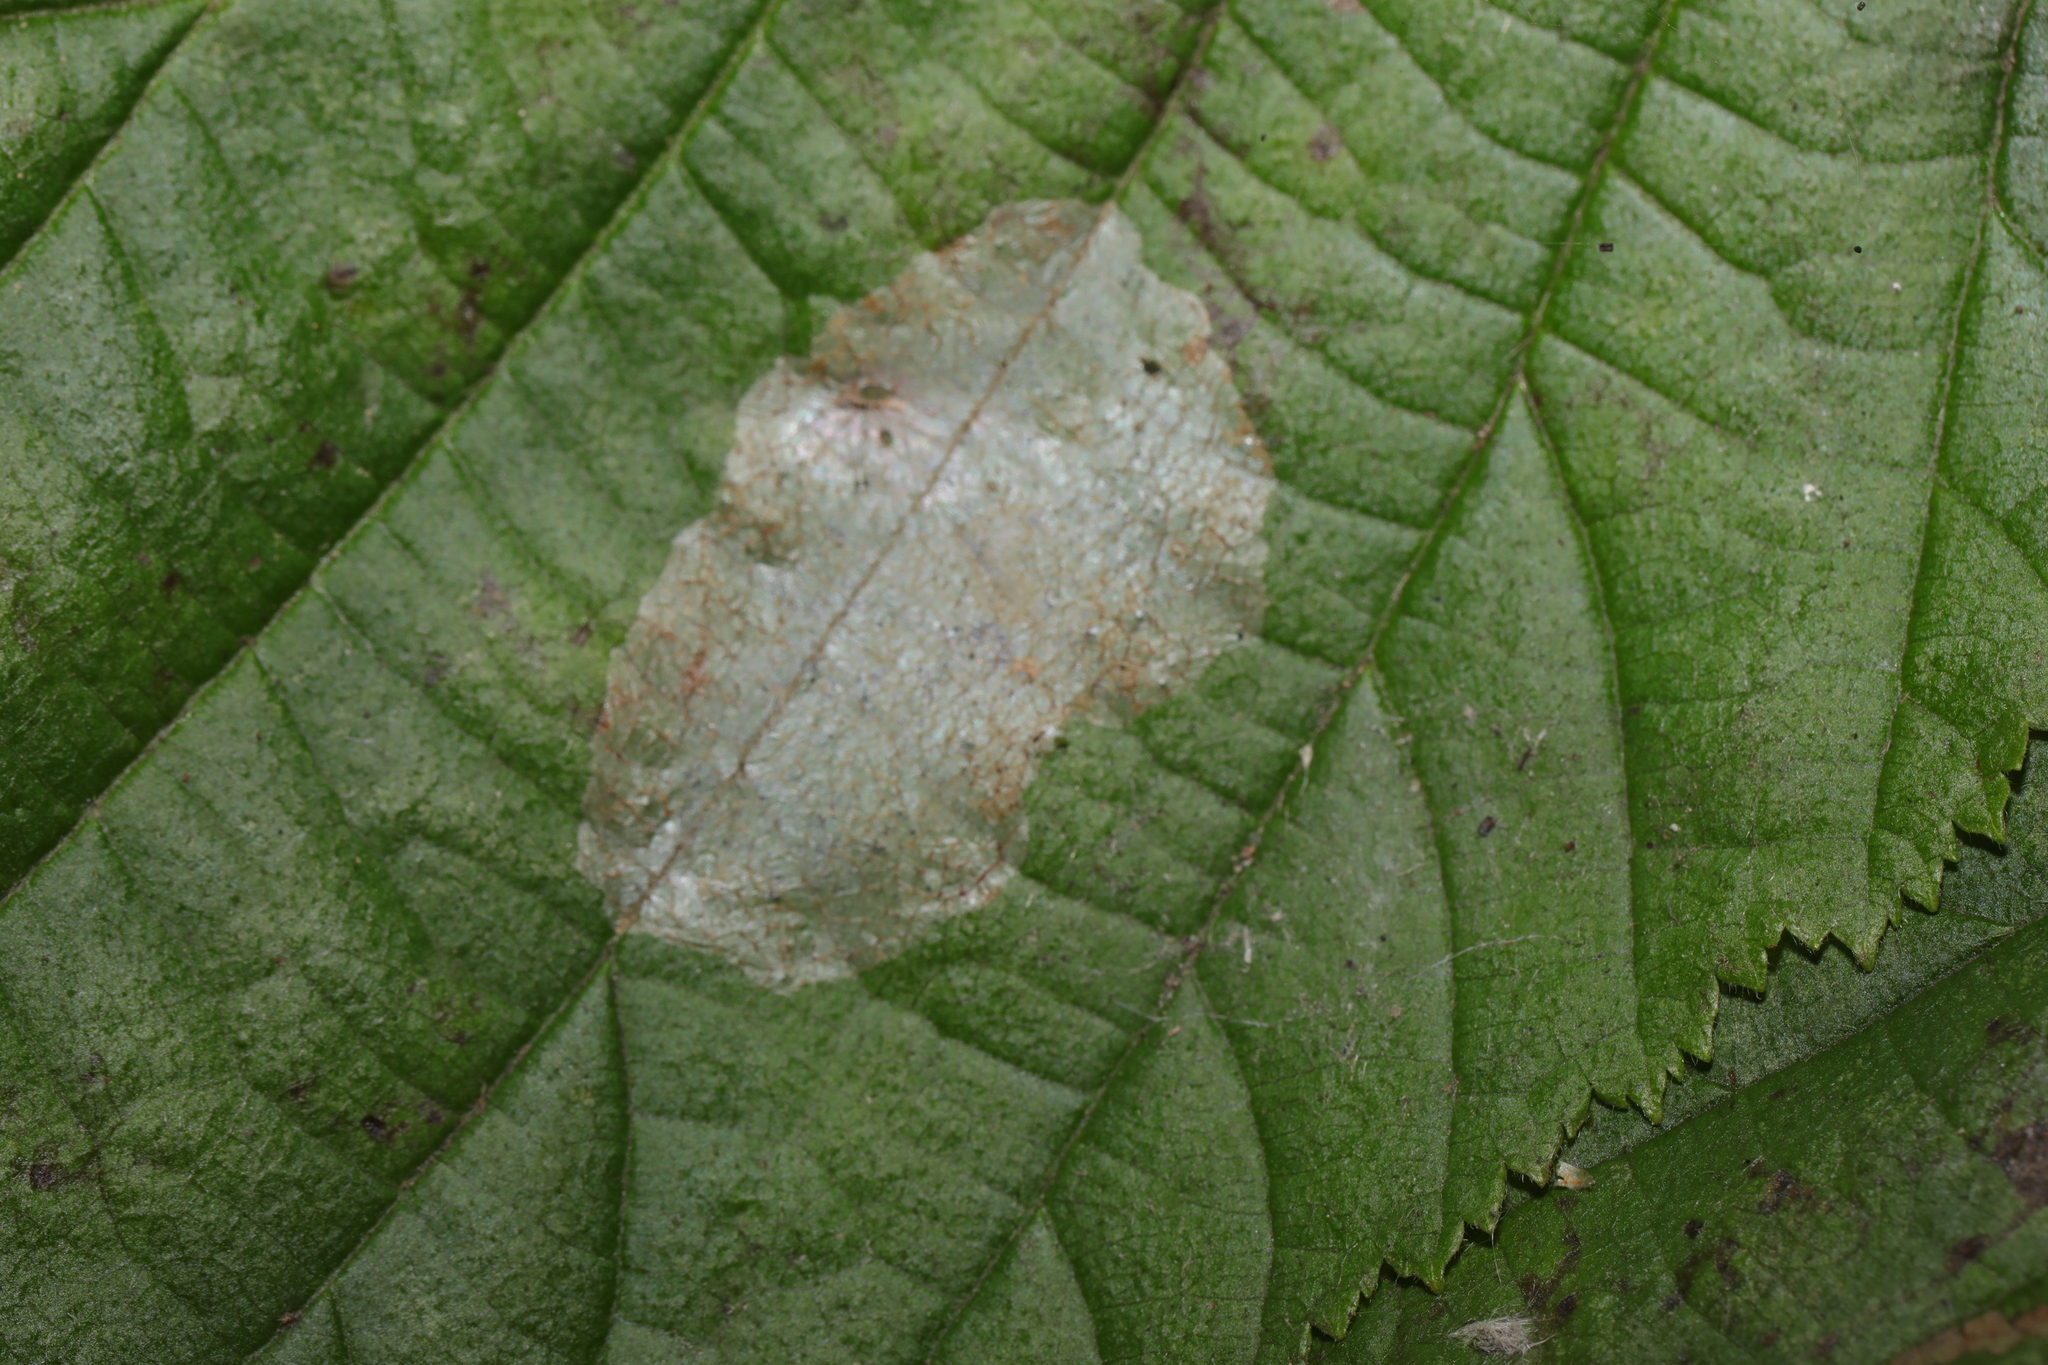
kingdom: Animalia
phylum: Arthropoda
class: Insecta
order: Lepidoptera
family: Gracillariidae
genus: Phyllonorycter
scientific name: Phyllonorycter coryli
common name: Nut-leaf blister moth
